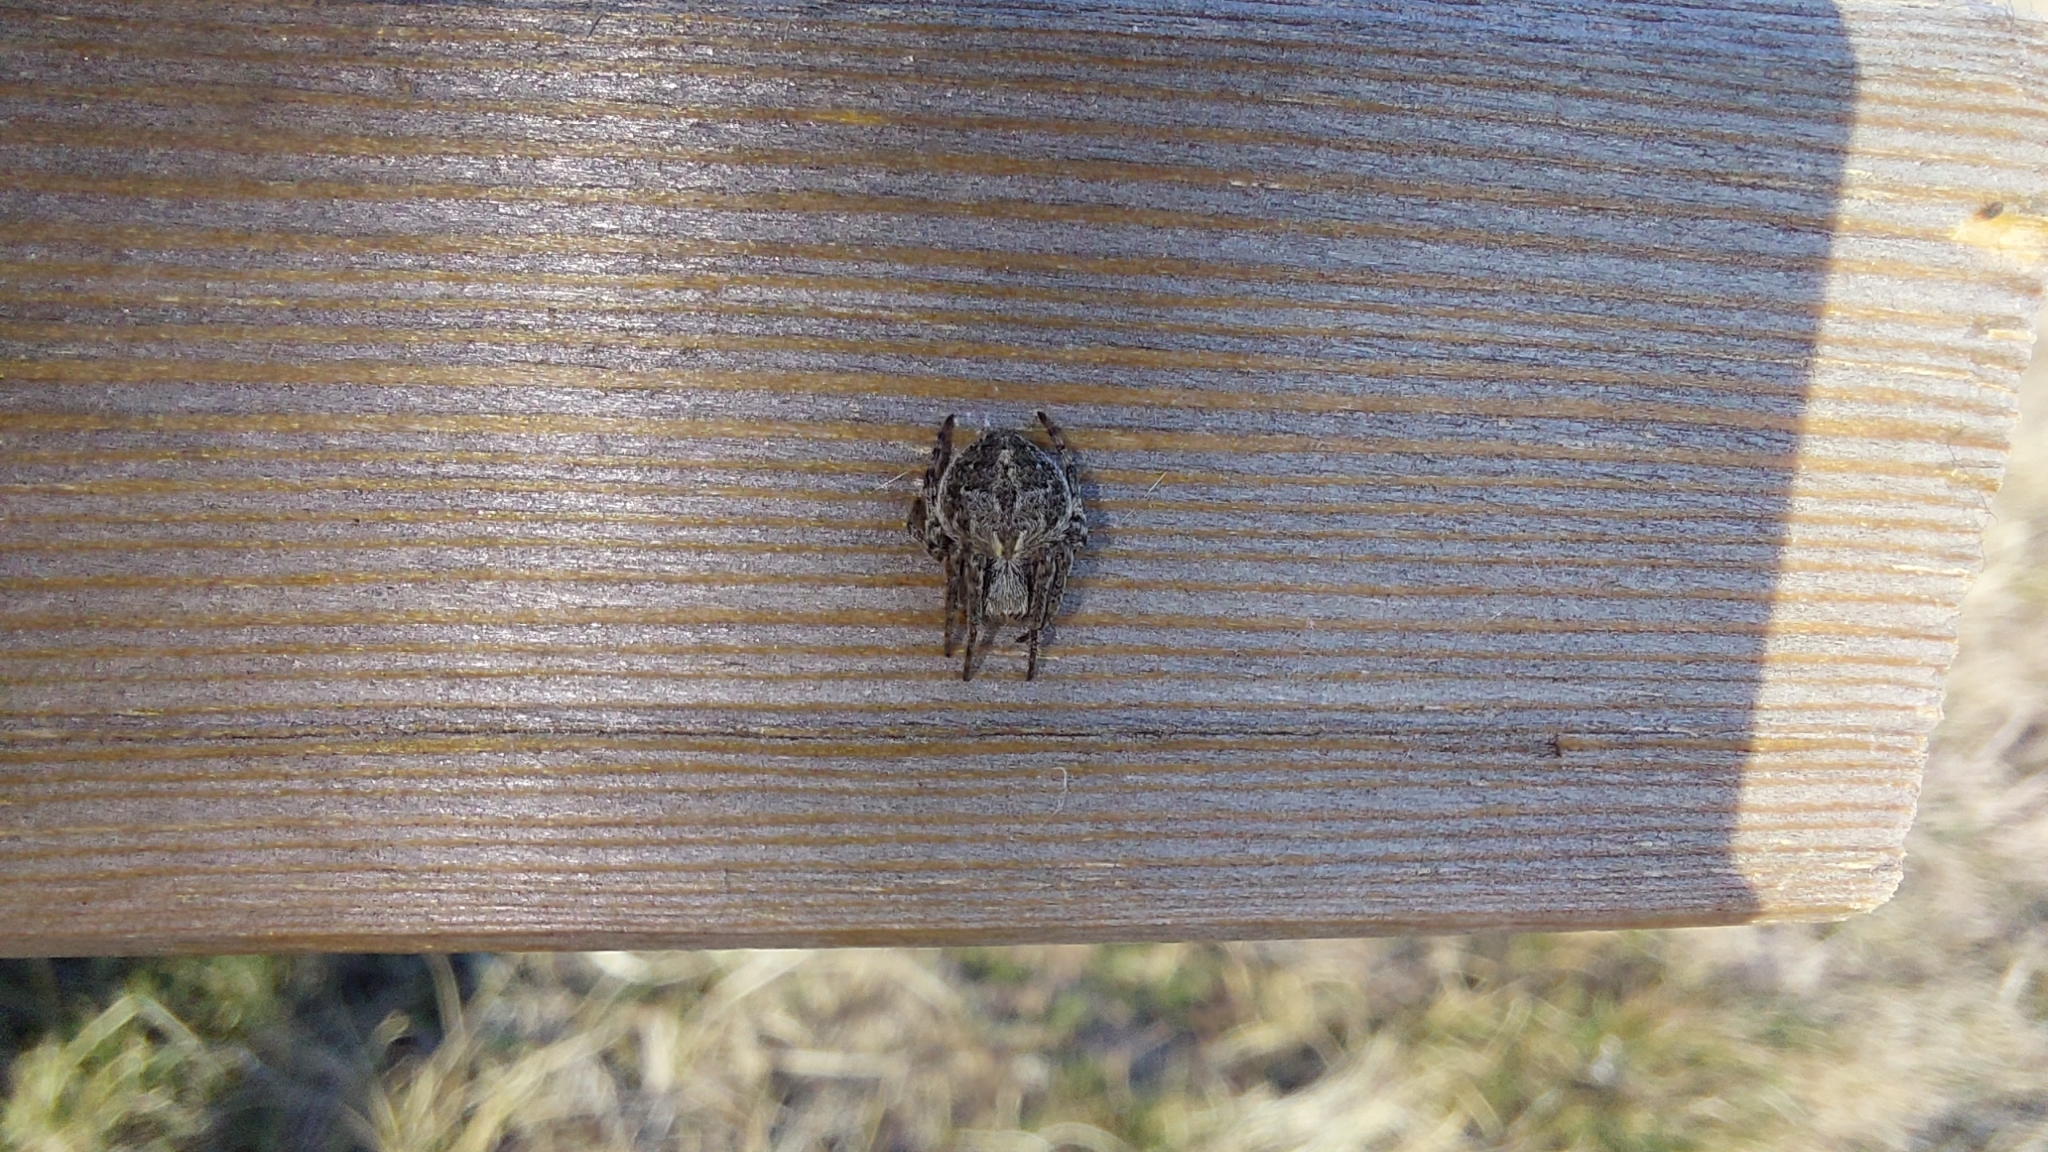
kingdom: Animalia
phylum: Arthropoda
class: Arachnida
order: Araneae
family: Araneidae
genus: Agalenatea
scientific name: Agalenatea redii
